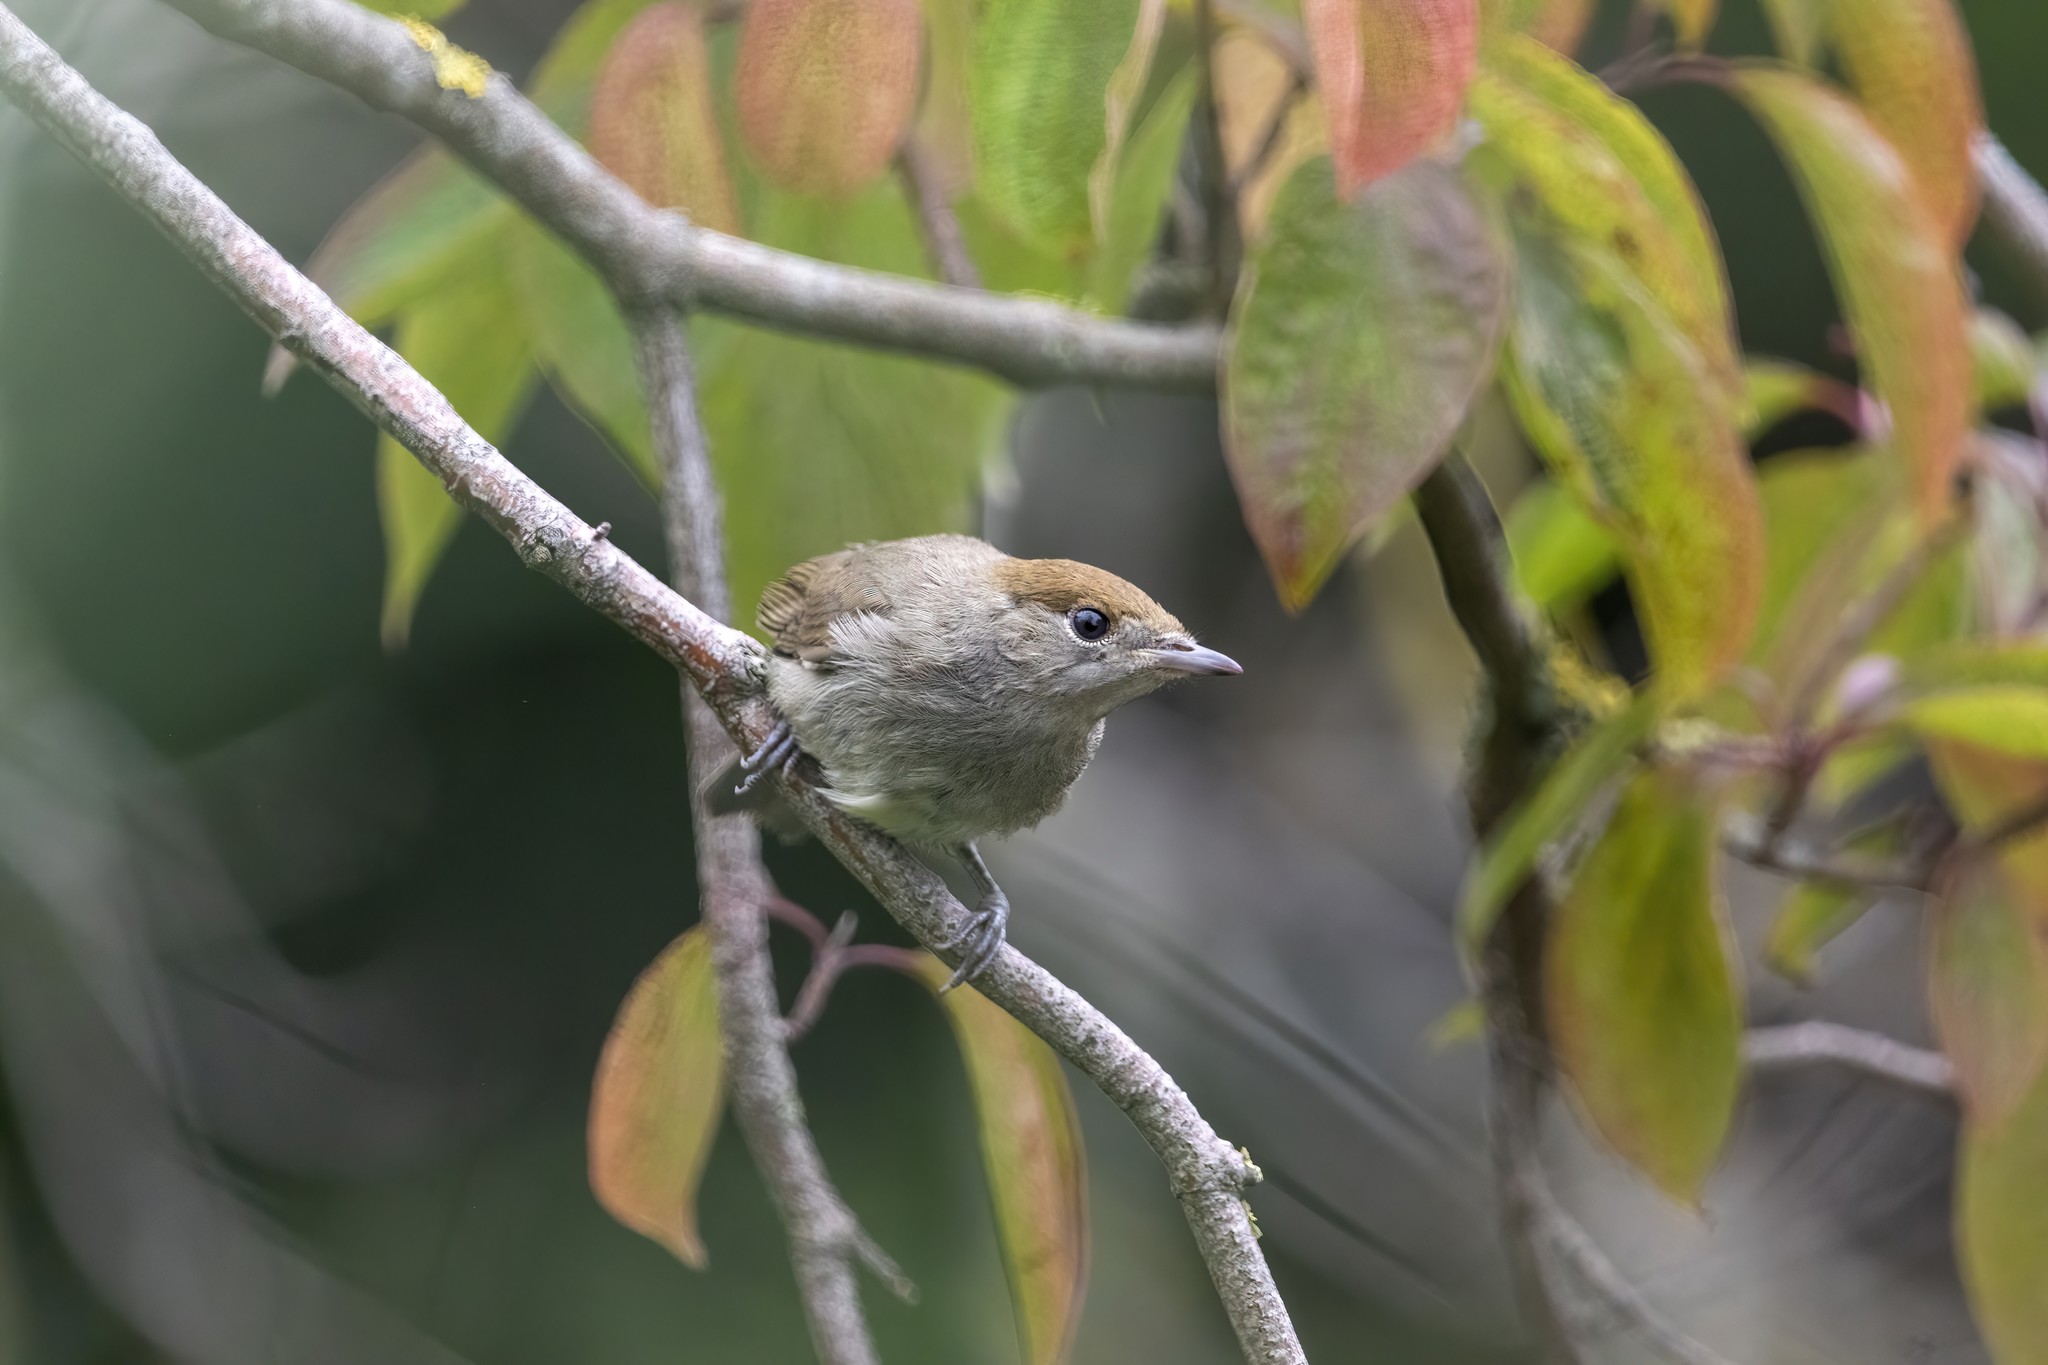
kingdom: Animalia
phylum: Chordata
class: Aves
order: Passeriformes
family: Sylviidae
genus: Sylvia
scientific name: Sylvia atricapilla
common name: Eurasian blackcap
